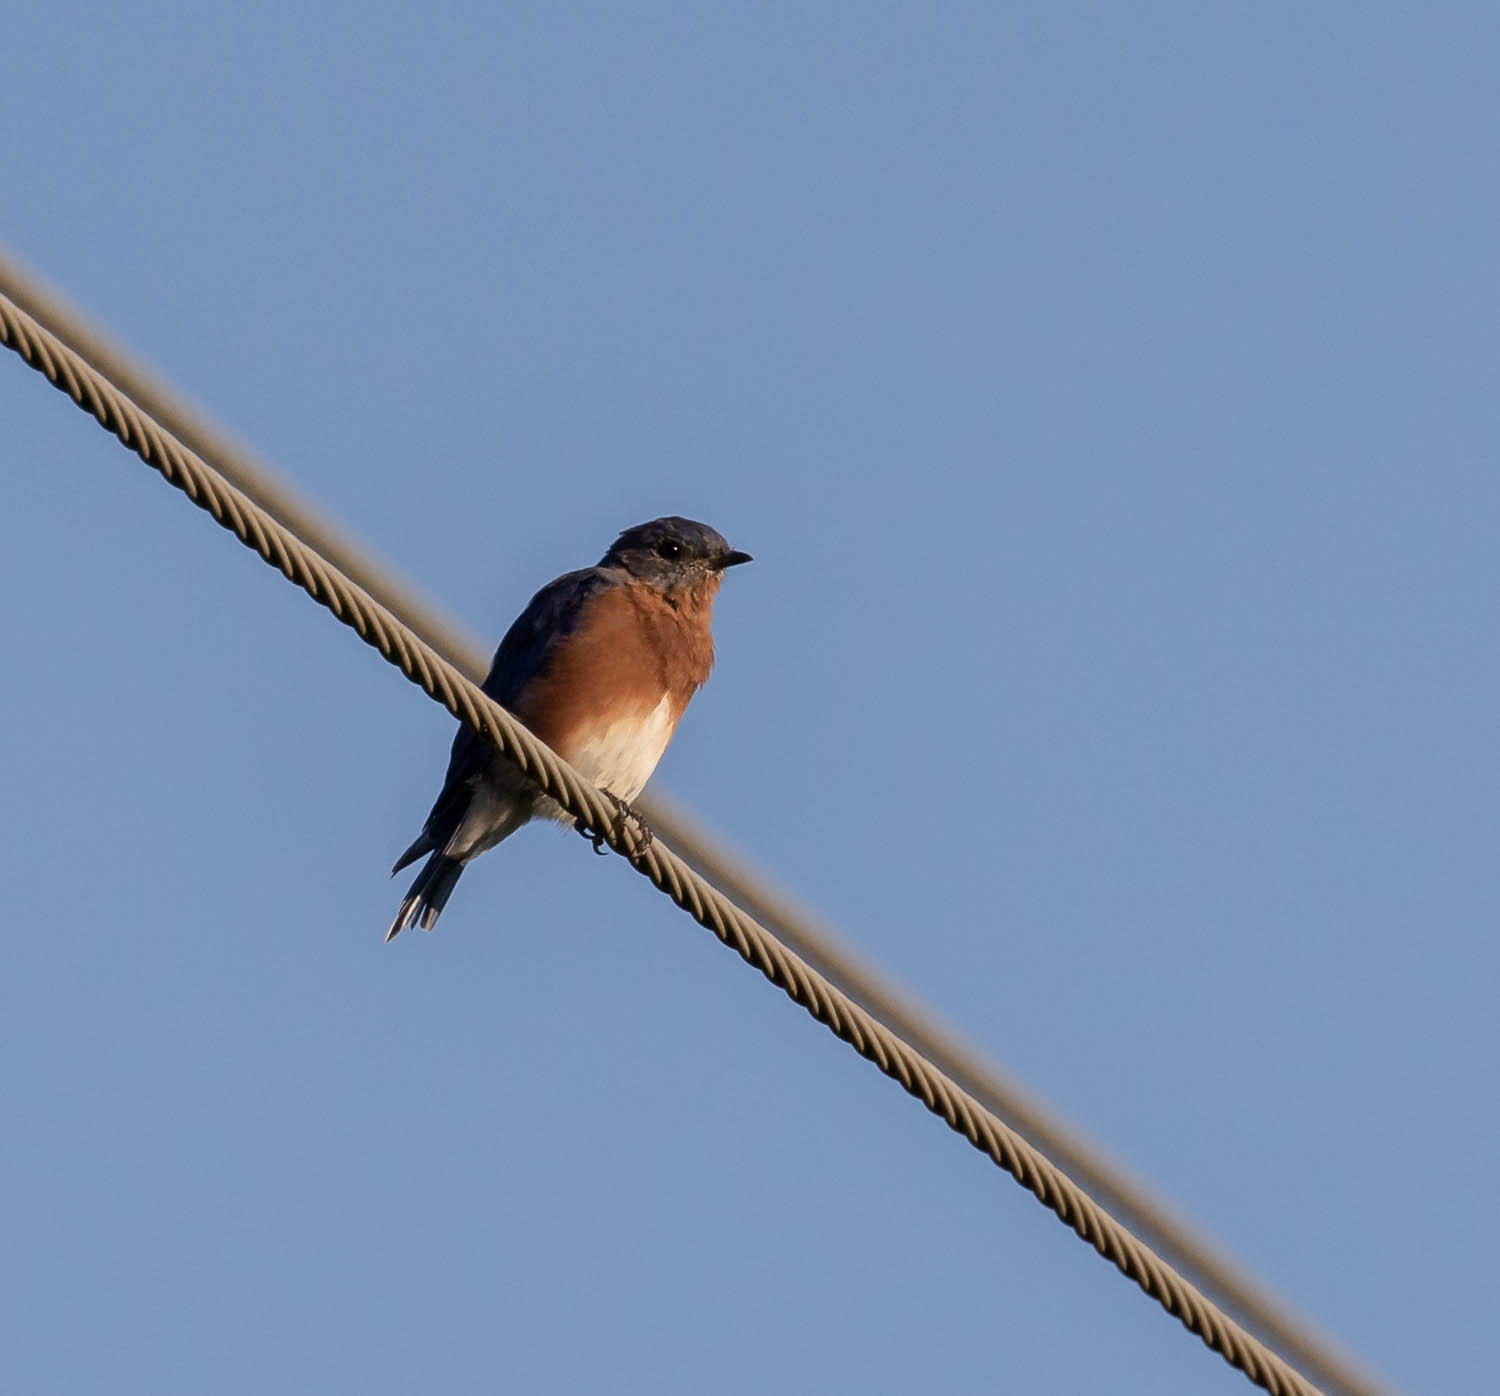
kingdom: Animalia
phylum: Chordata
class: Aves
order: Passeriformes
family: Turdidae
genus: Sialia
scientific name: Sialia sialis
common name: Eastern bluebird
